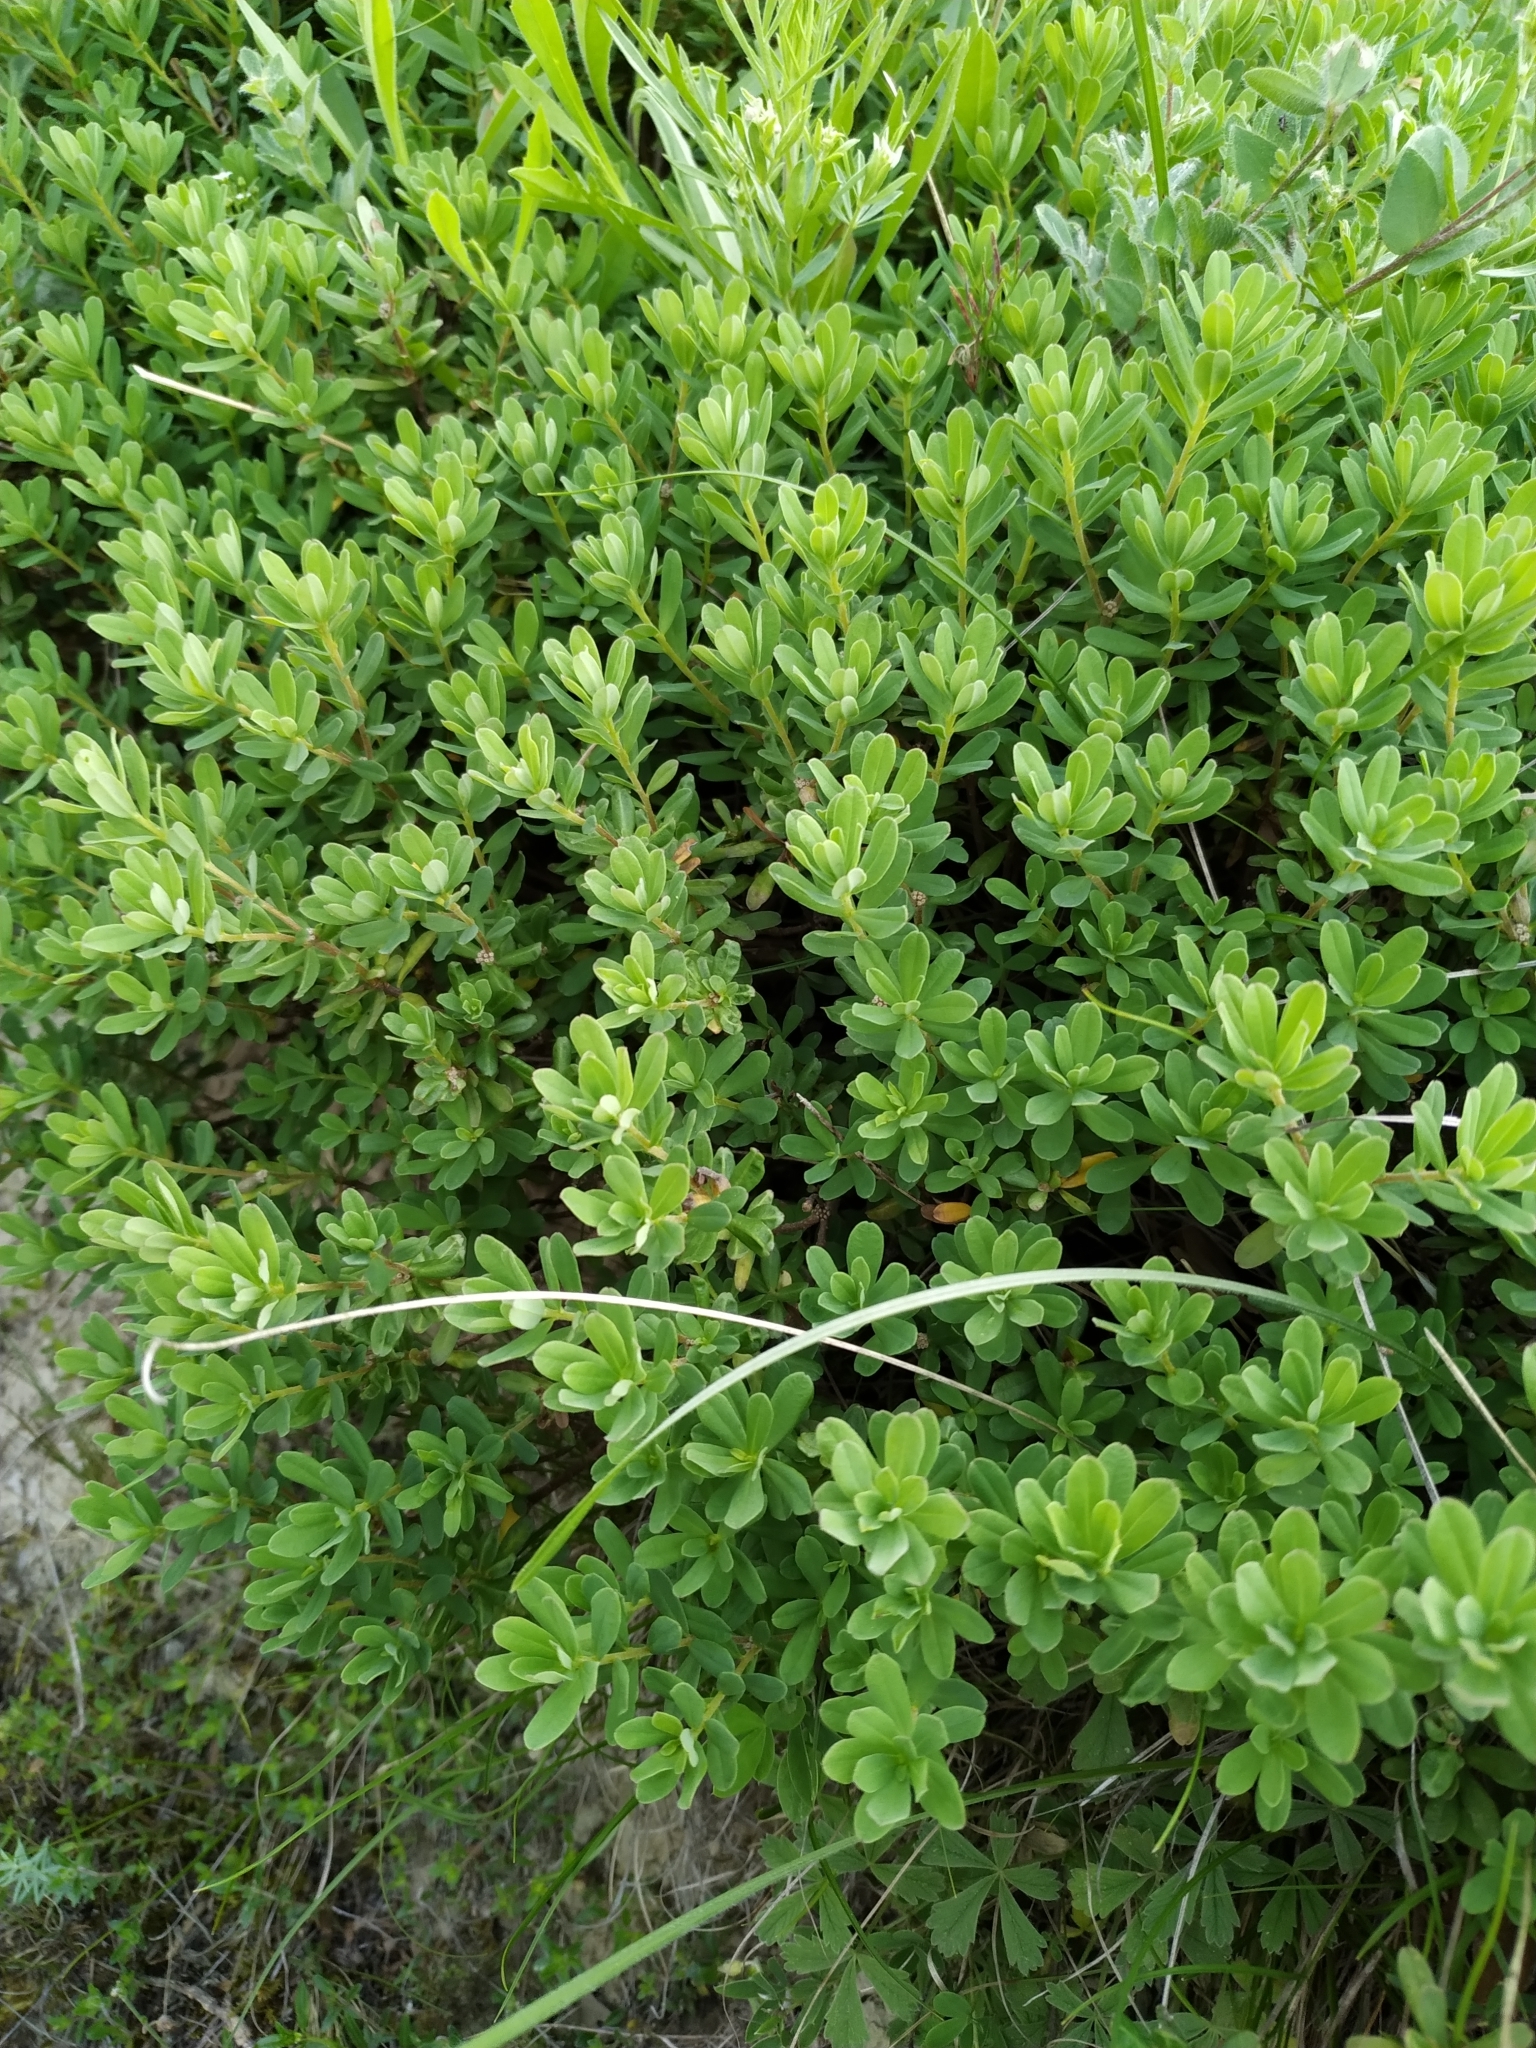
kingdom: Plantae
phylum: Tracheophyta
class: Magnoliopsida
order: Malvales
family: Thymelaeaceae
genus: Daphne
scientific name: Daphne cneorum
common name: Garland-flower
